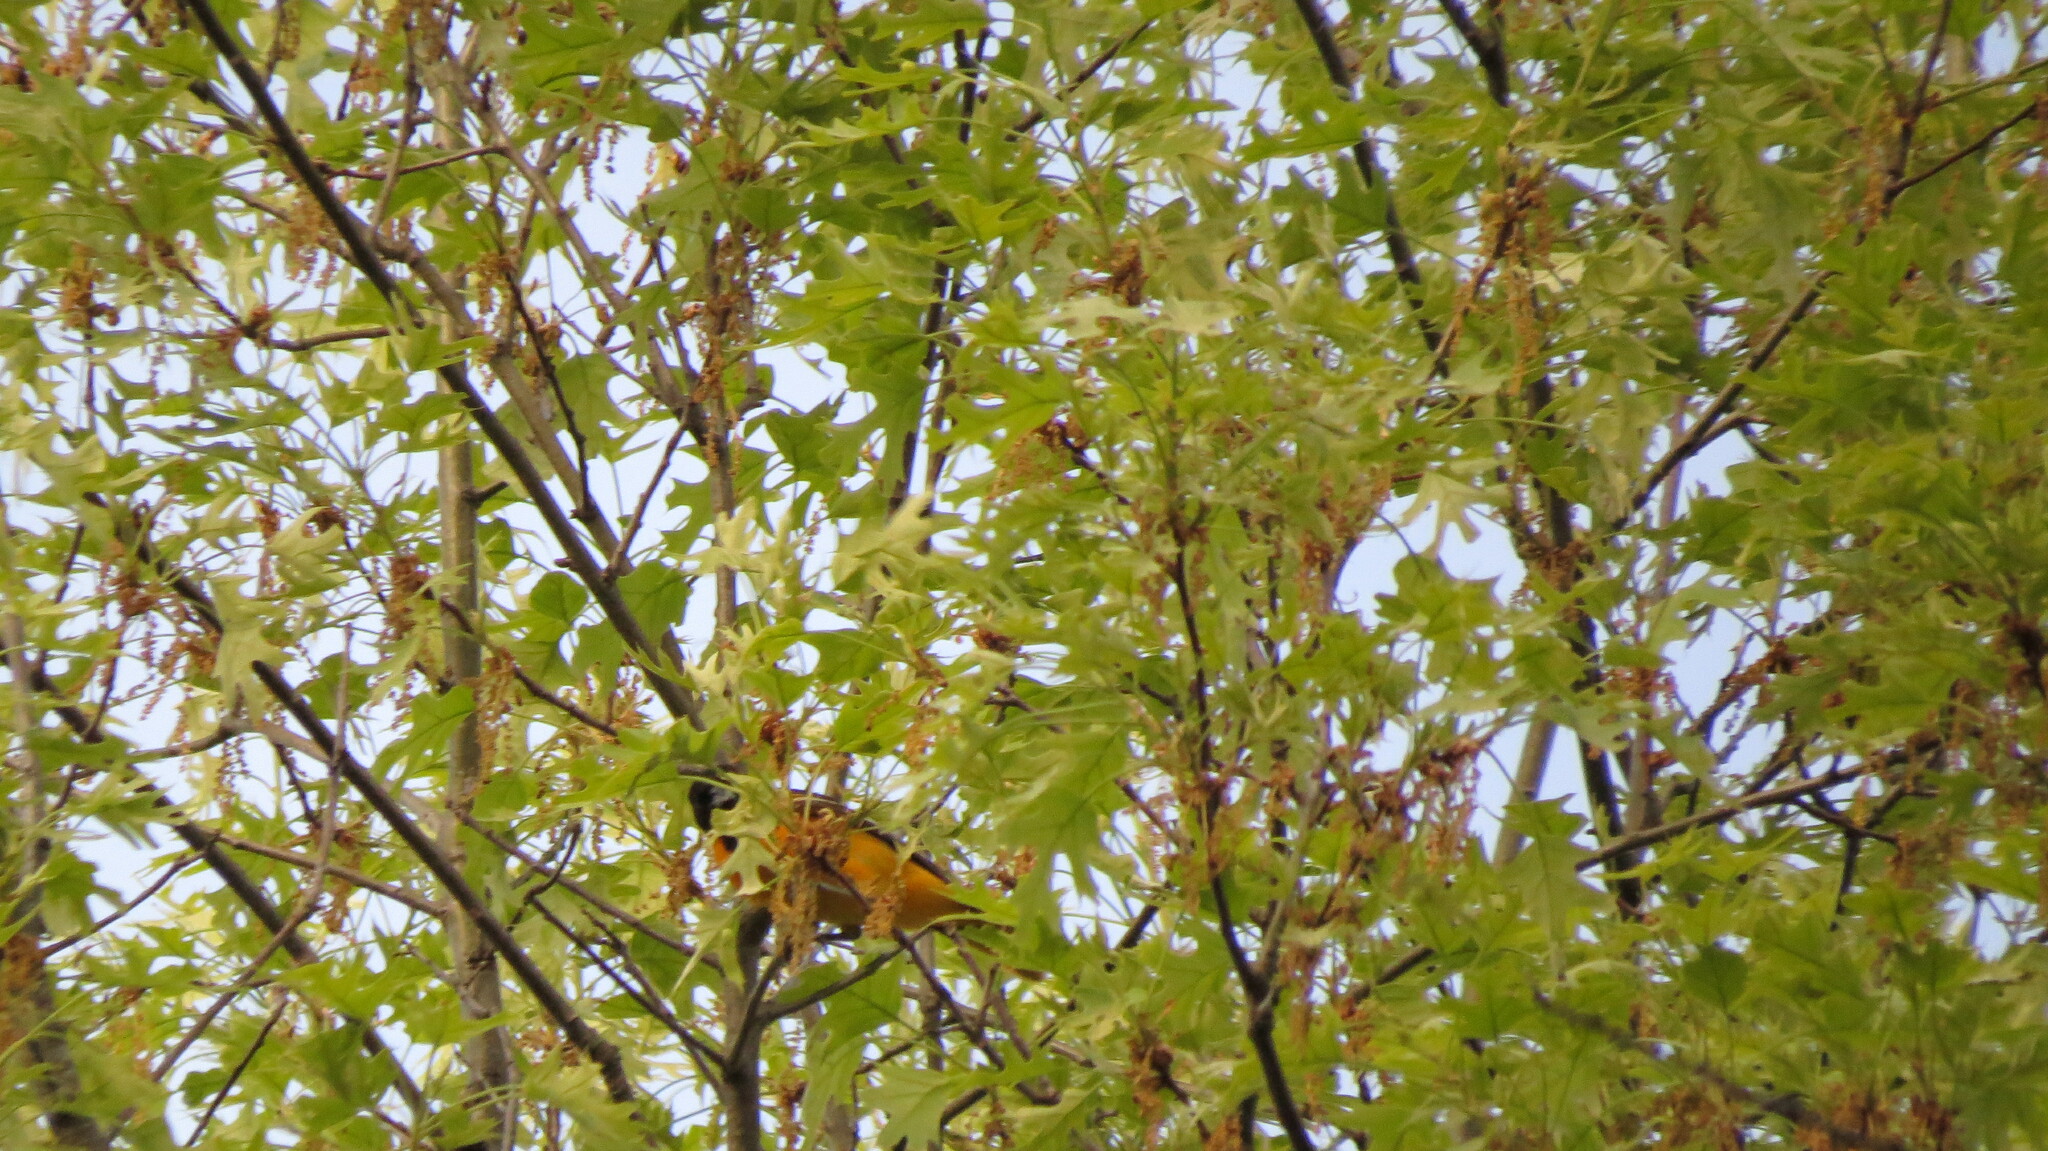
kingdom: Animalia
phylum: Chordata
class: Aves
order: Passeriformes
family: Icteridae
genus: Icterus
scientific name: Icterus galbula
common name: Baltimore oriole
